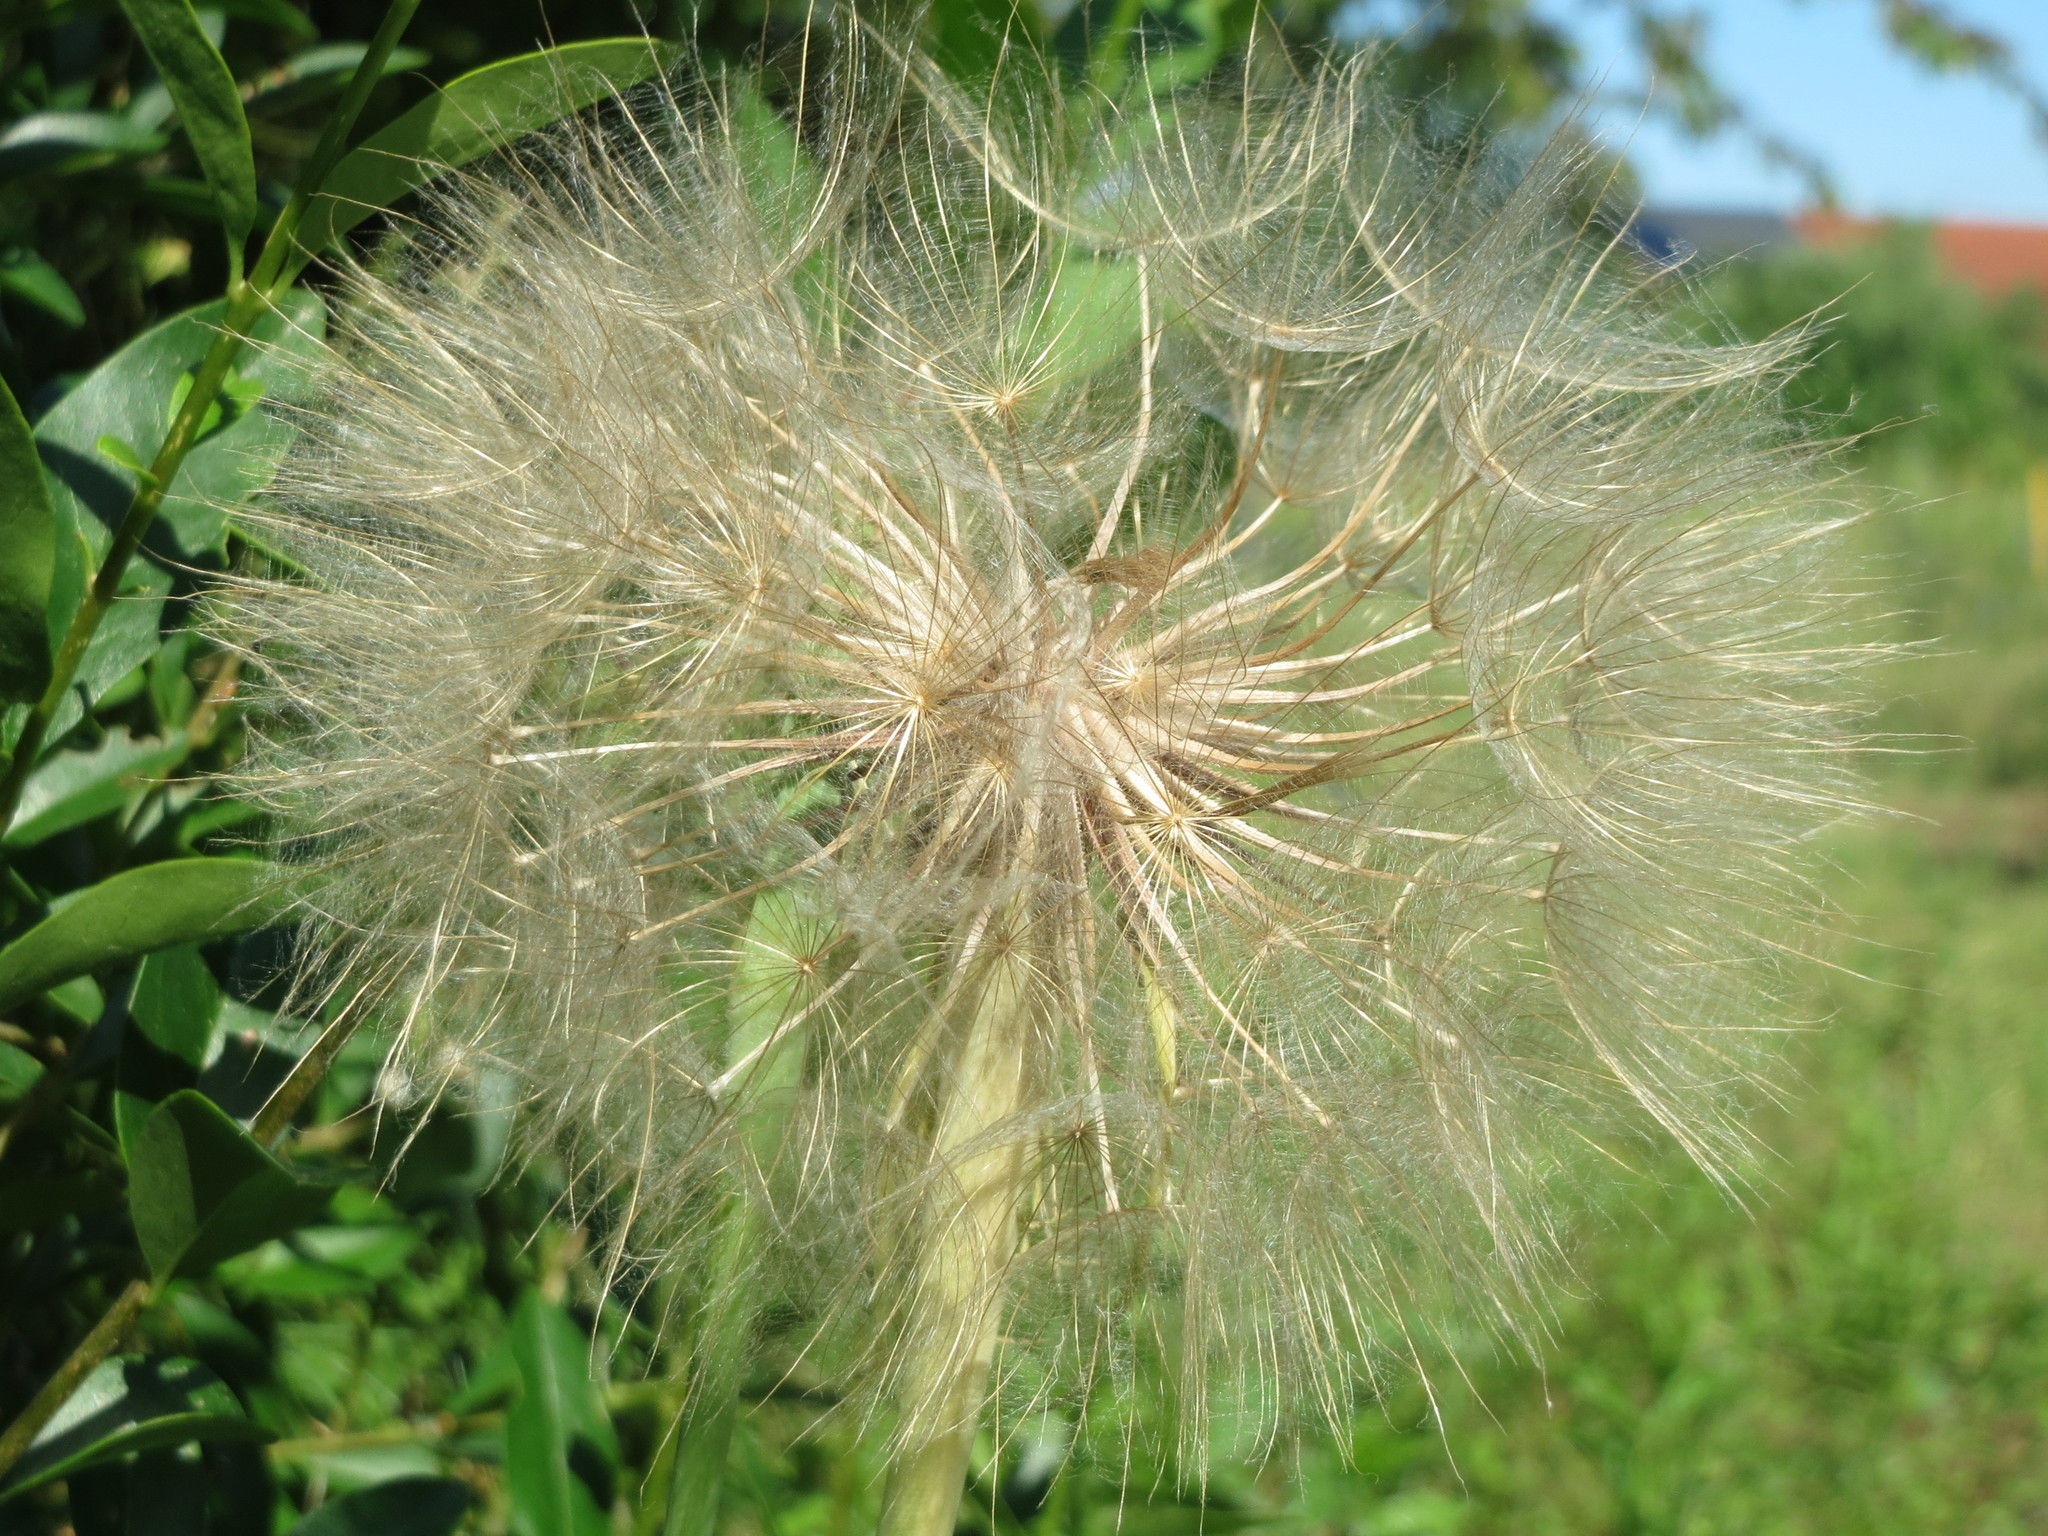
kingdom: Plantae
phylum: Tracheophyta
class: Magnoliopsida
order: Asterales
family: Asteraceae
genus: Tragopogon
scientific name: Tragopogon dubius
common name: Yellow salsify
